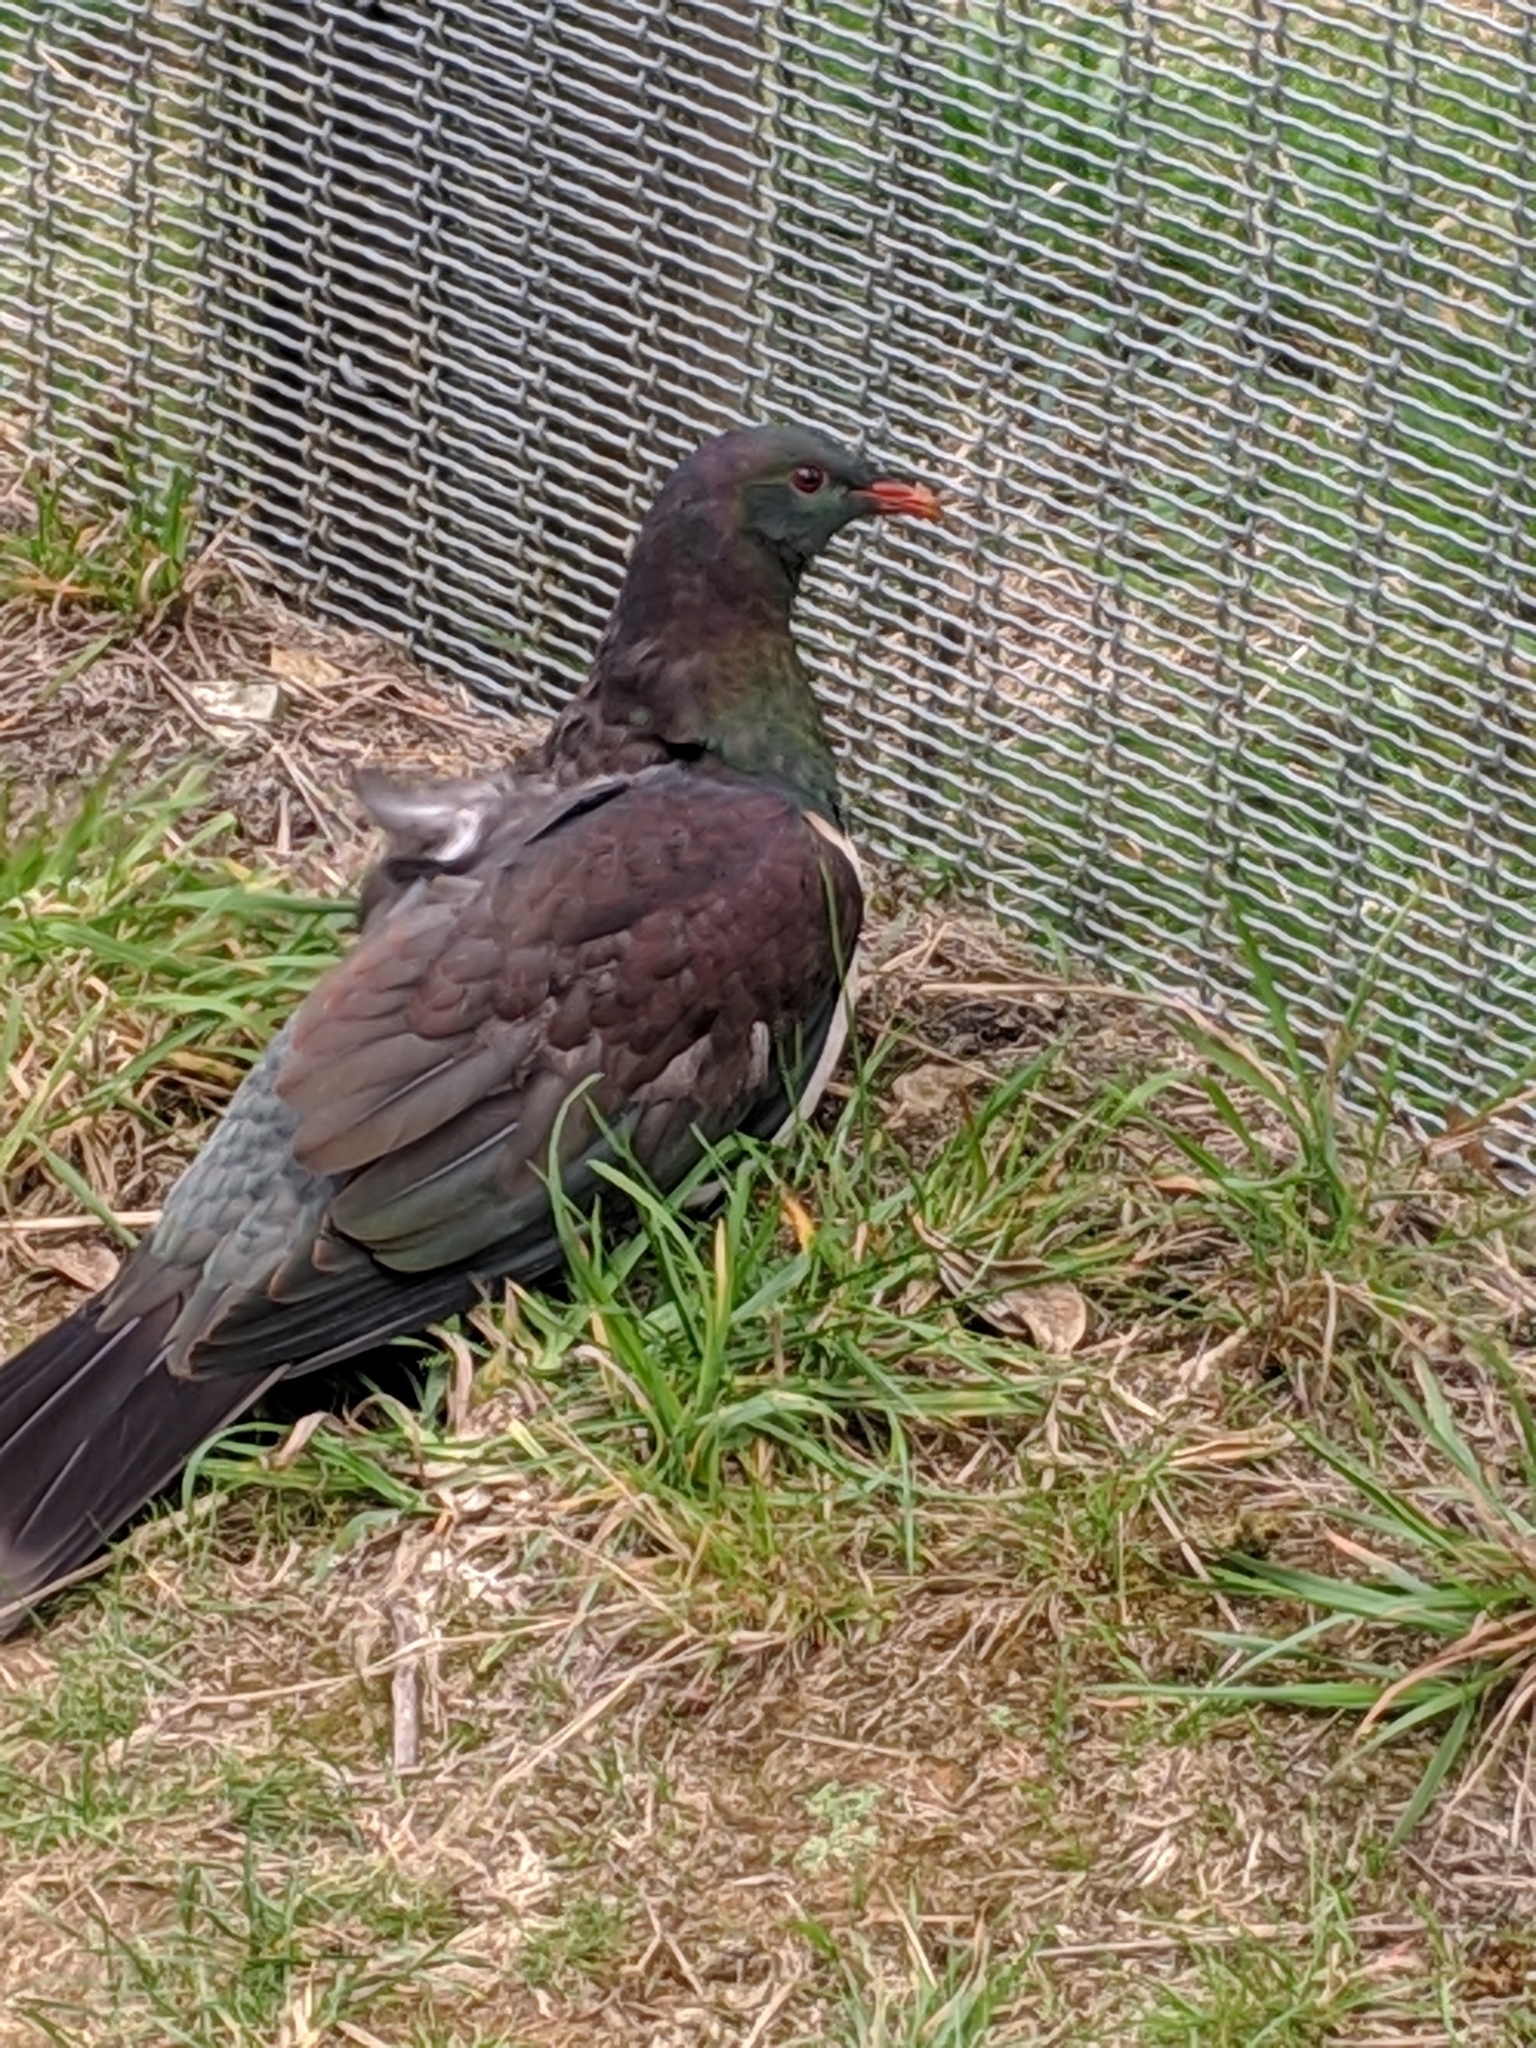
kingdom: Animalia
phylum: Chordata
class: Aves
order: Columbiformes
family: Columbidae
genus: Hemiphaga
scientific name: Hemiphaga novaeseelandiae
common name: New zealand pigeon
